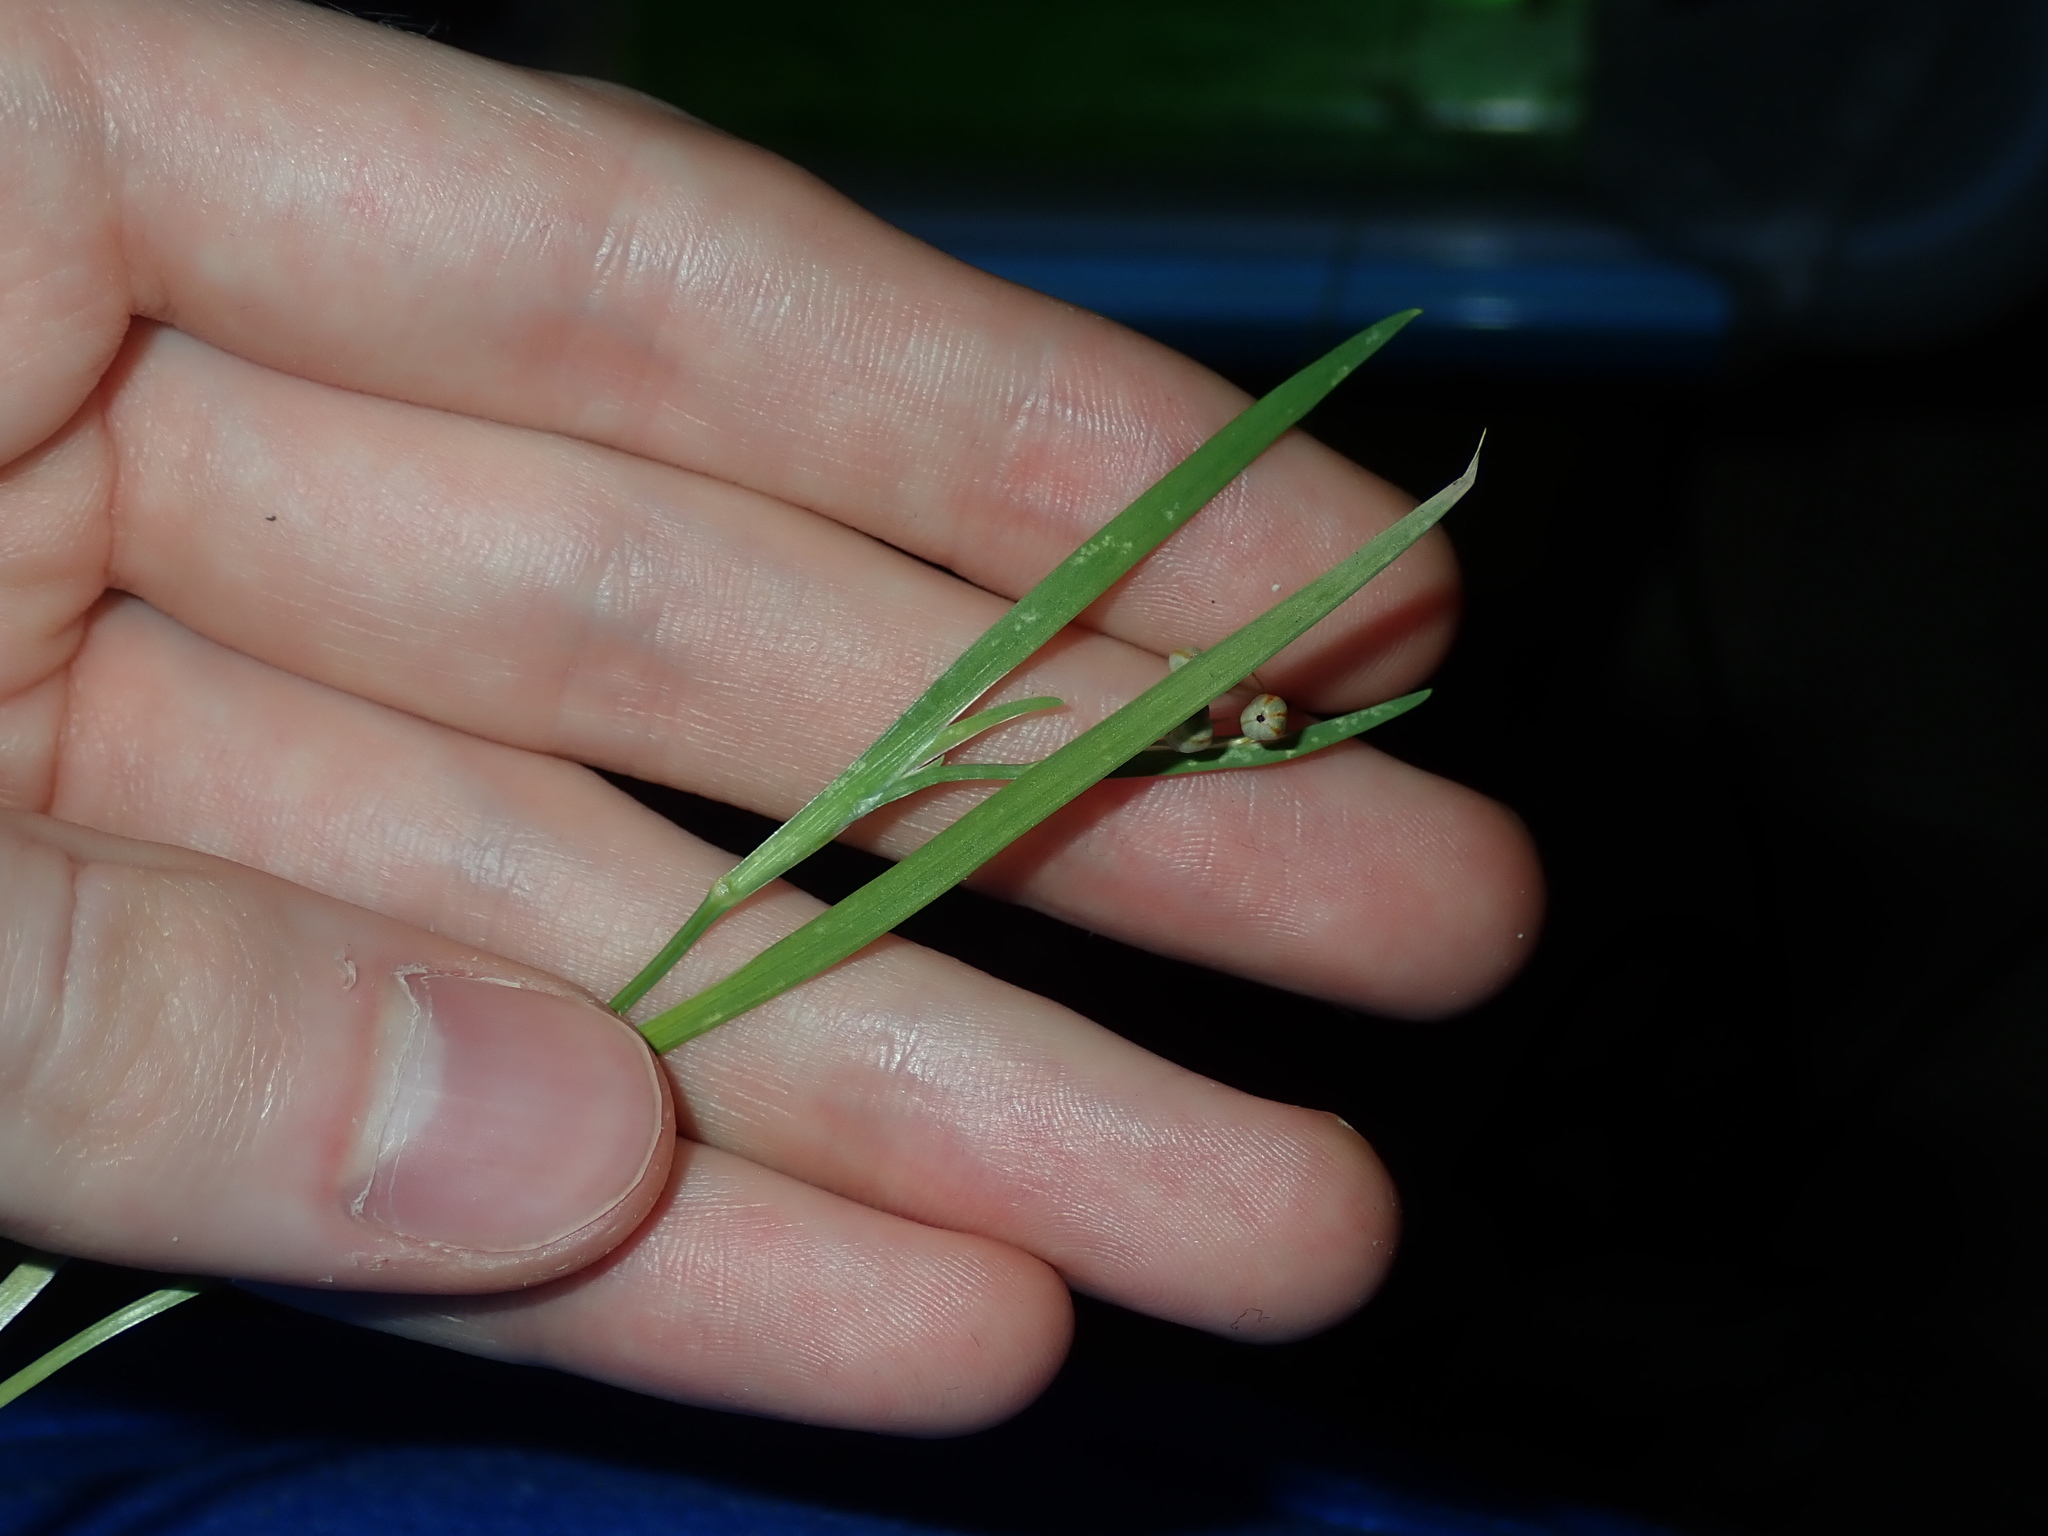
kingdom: Plantae
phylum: Tracheophyta
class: Liliopsida
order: Asparagales
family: Iridaceae
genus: Sisyrinchium
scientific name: Sisyrinchium micranthum
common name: Bermuda pigroot
